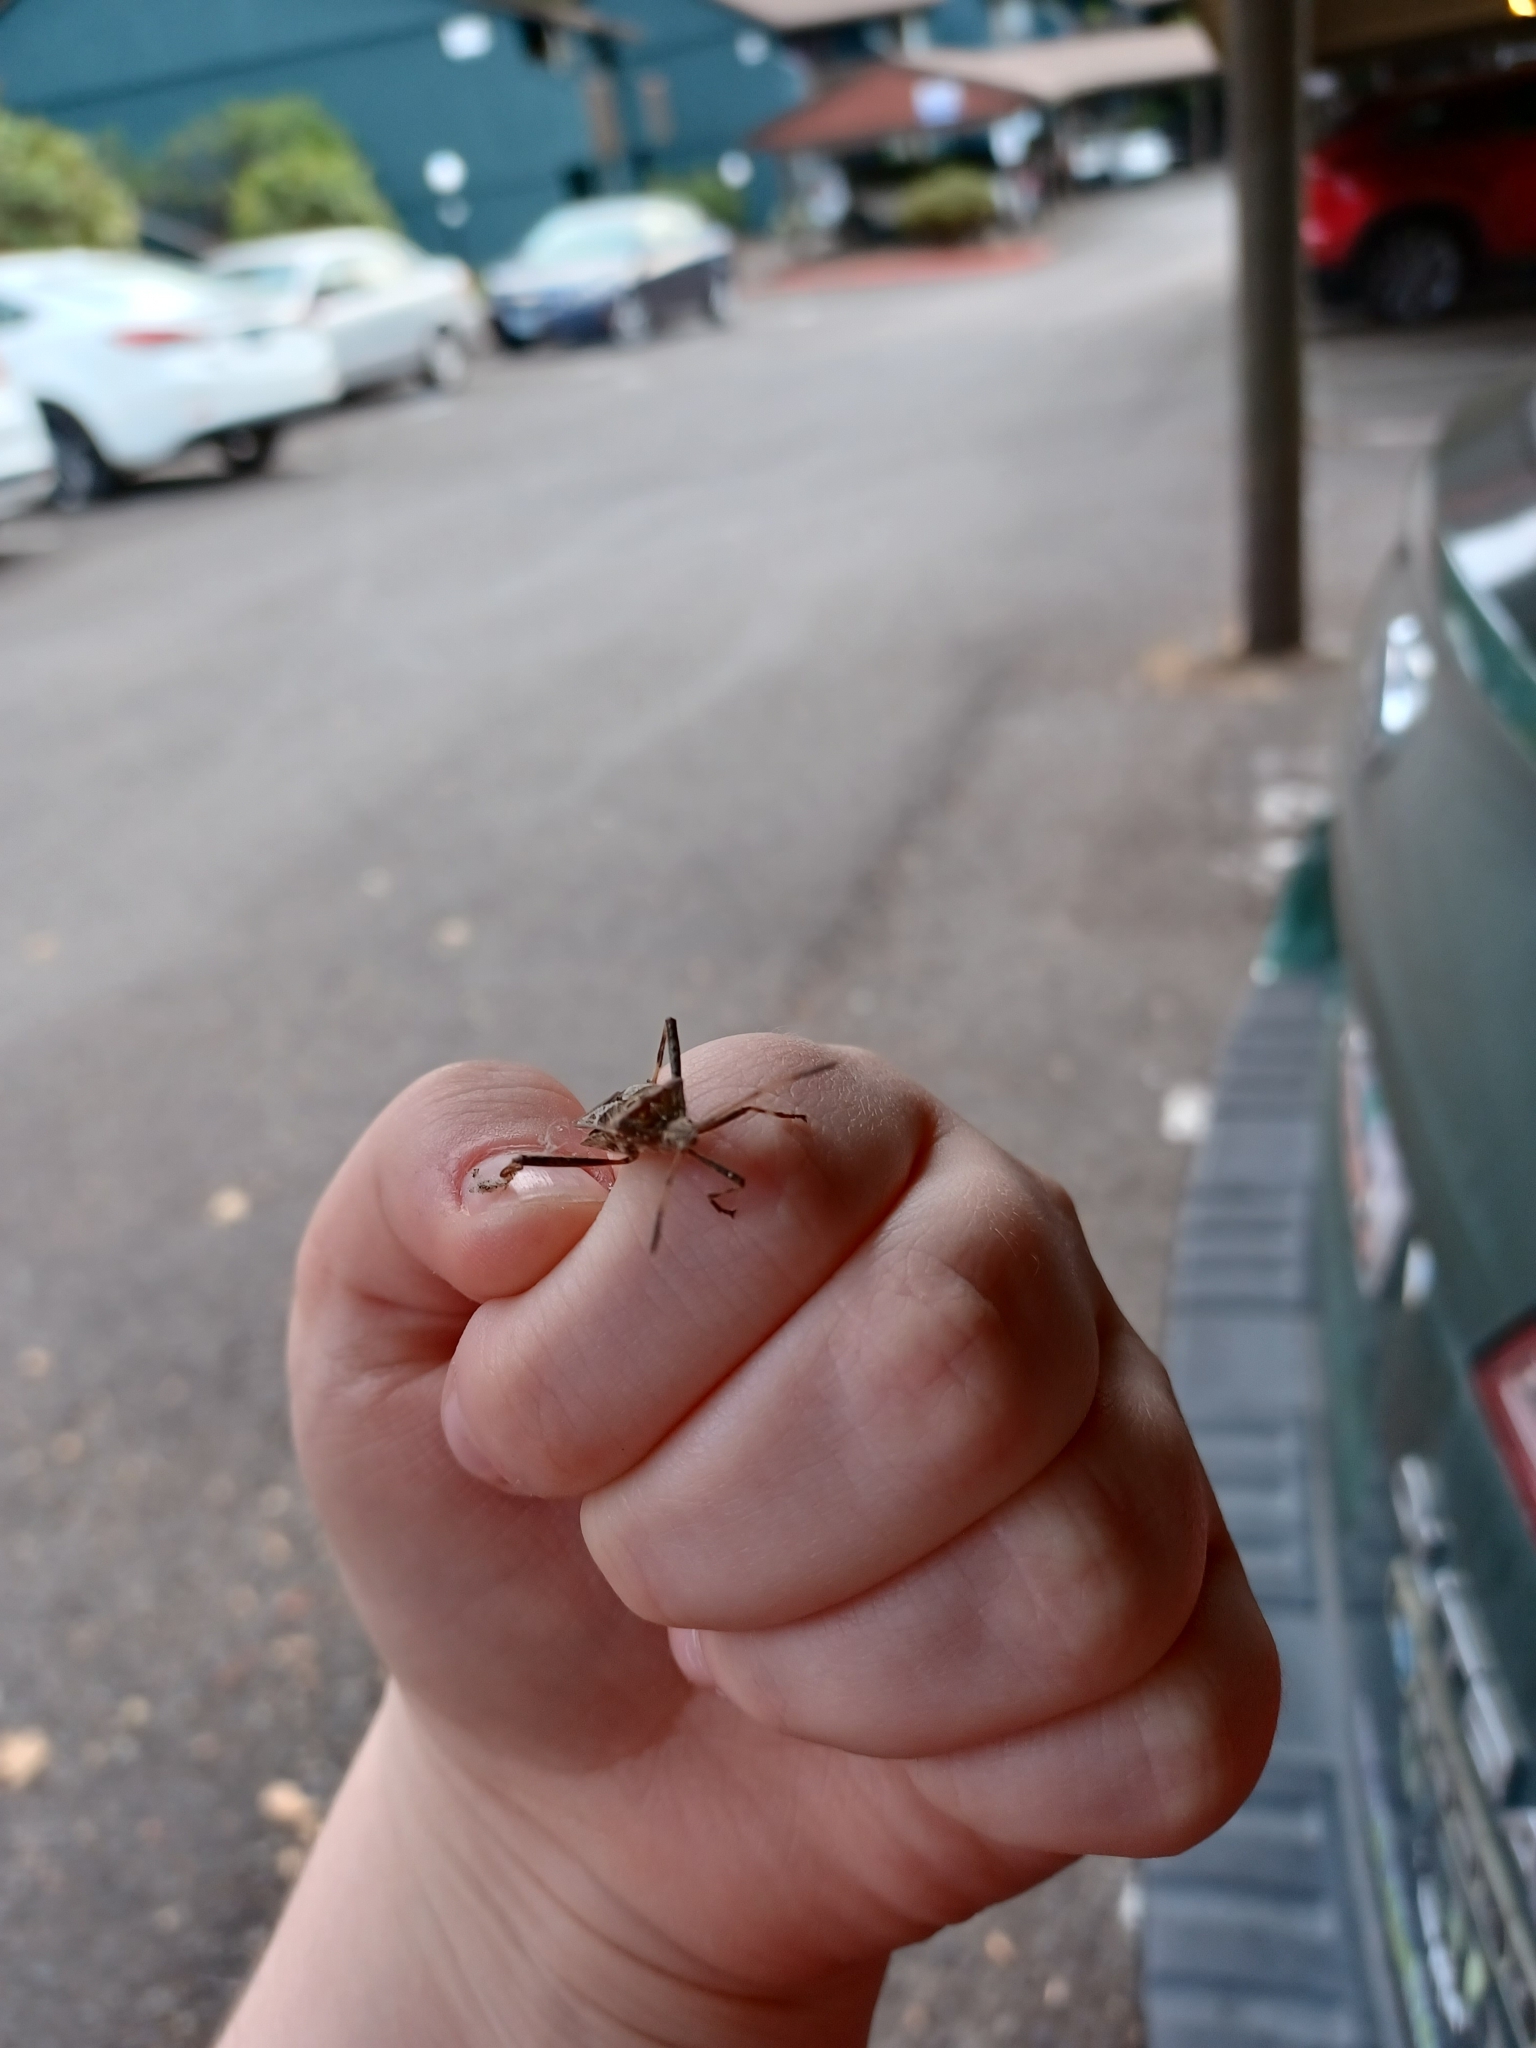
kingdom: Animalia
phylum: Arthropoda
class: Insecta
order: Hemiptera
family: Coreidae
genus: Leptoglossus
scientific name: Leptoglossus occidentalis
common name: Western conifer-seed bug
